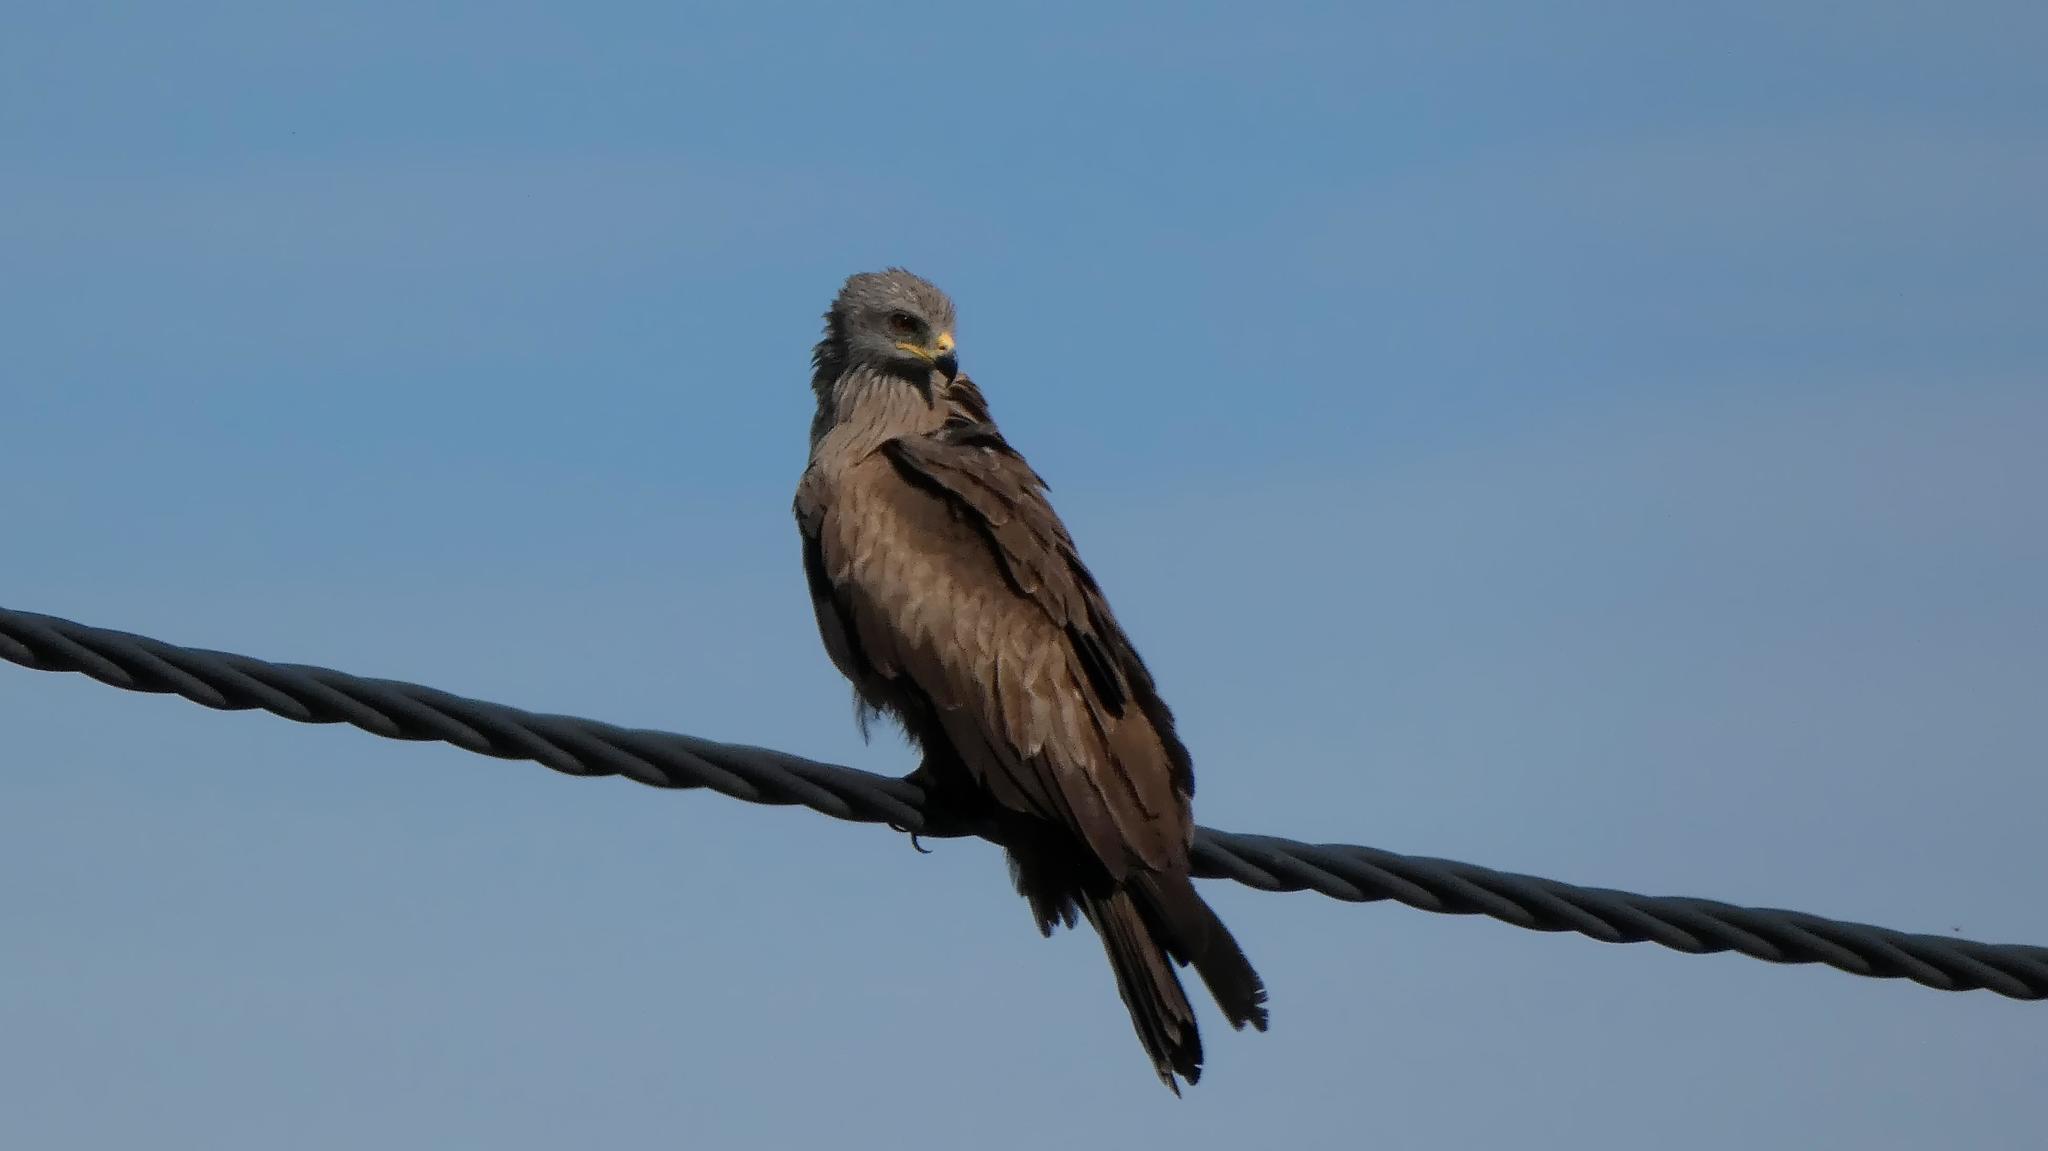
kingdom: Animalia
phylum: Chordata
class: Aves
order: Accipitriformes
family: Accipitridae
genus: Milvus
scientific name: Milvus migrans
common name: Black kite
